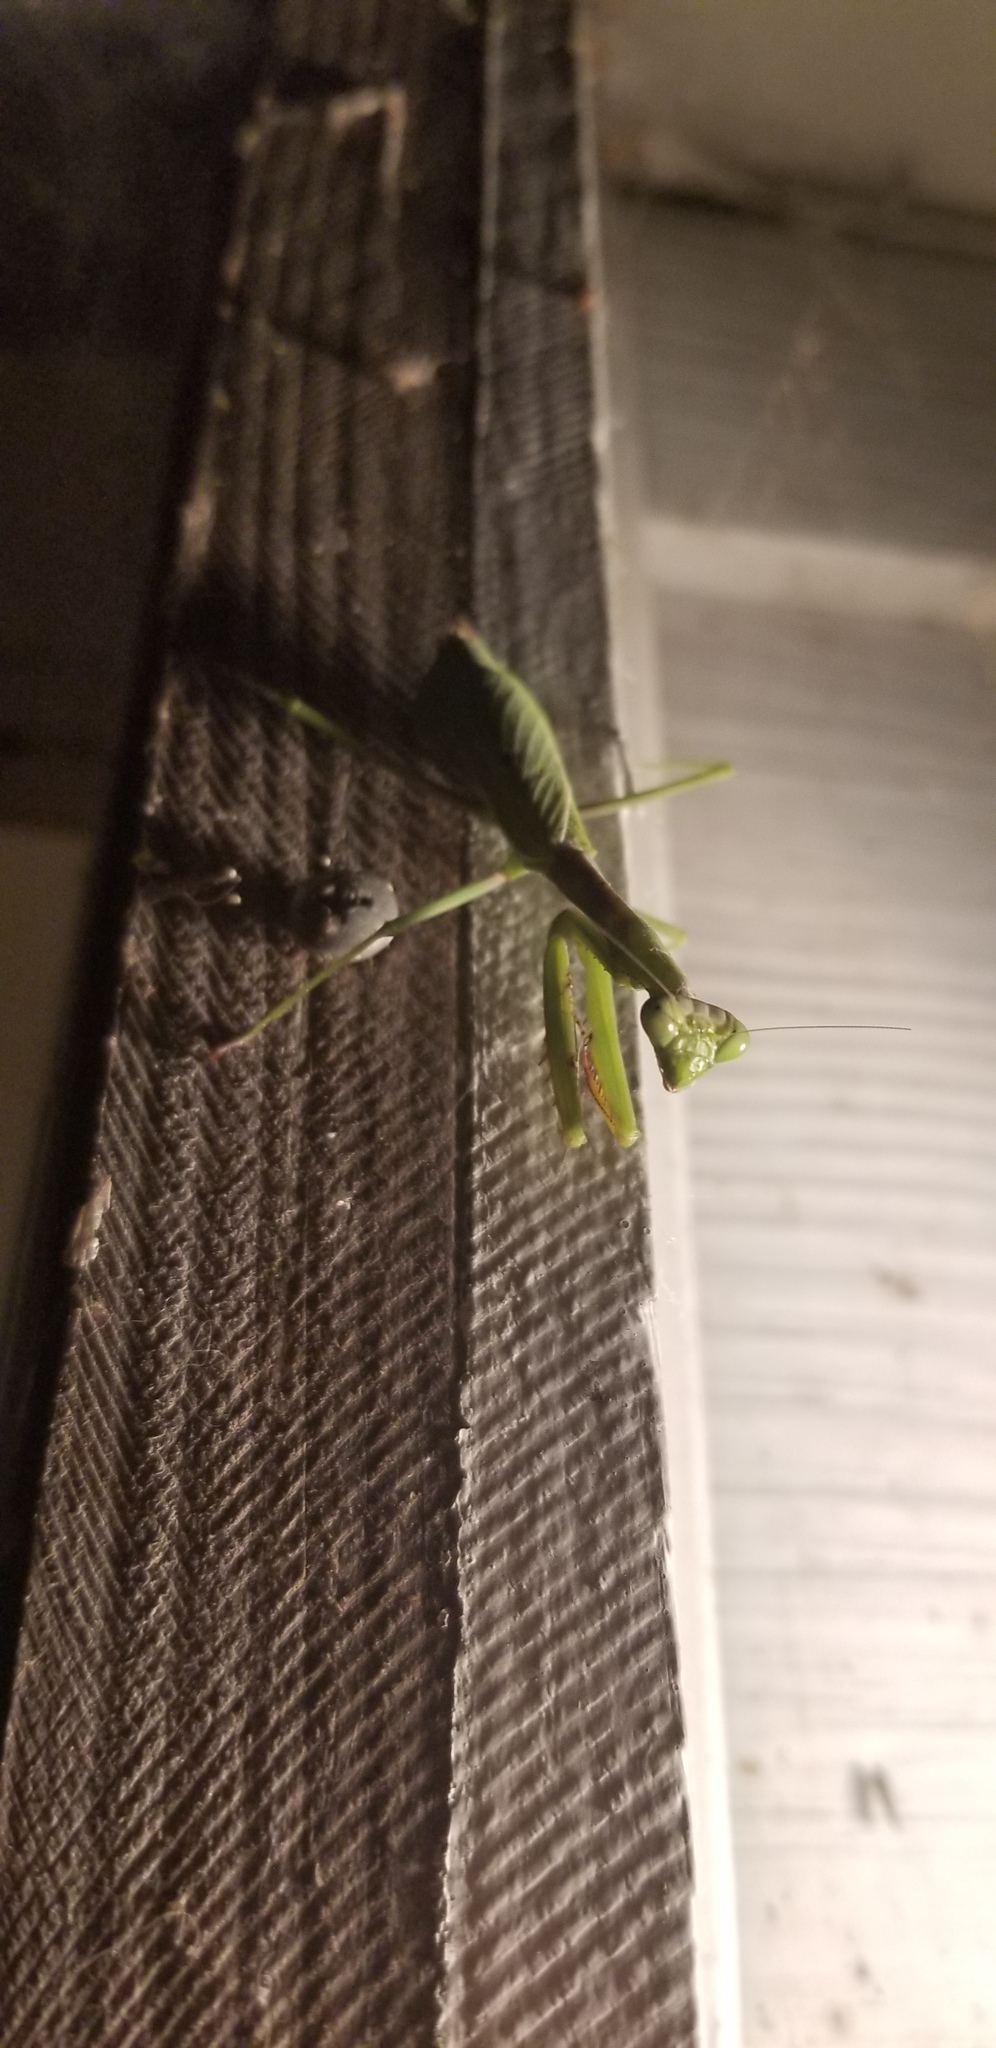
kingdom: Animalia
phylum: Arthropoda
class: Insecta
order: Mantodea
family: Mantidae
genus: Stagmomantis
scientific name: Stagmomantis carolina
